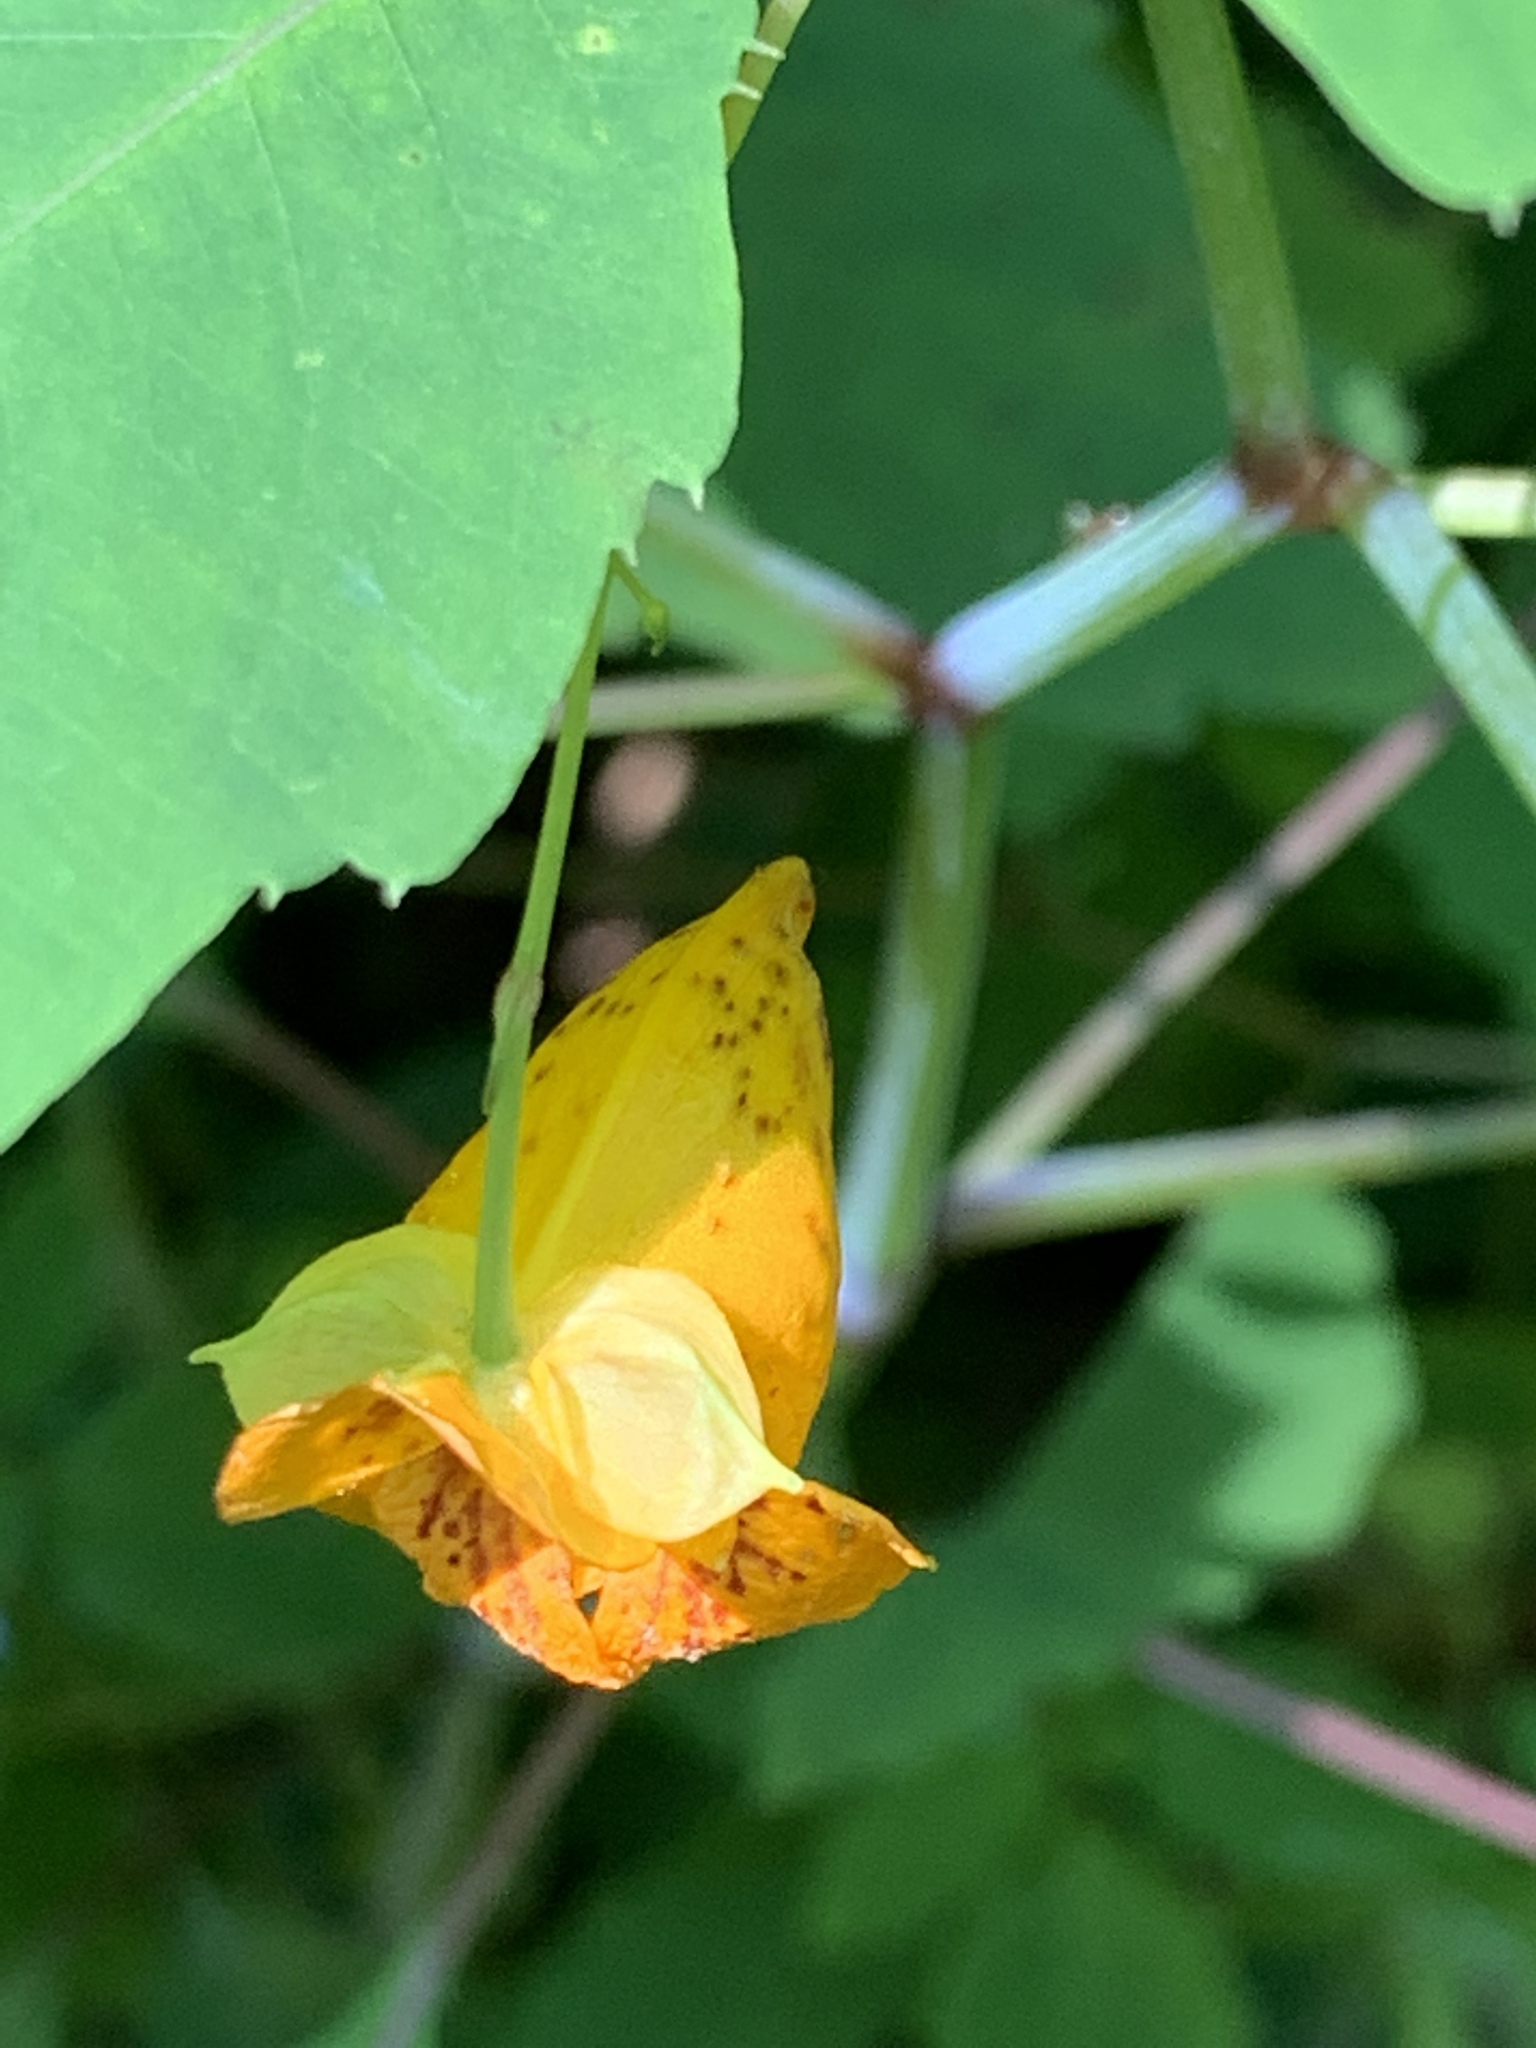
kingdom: Plantae
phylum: Tracheophyta
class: Magnoliopsida
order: Ericales
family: Balsaminaceae
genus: Impatiens
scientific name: Impatiens capensis
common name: Orange balsam
